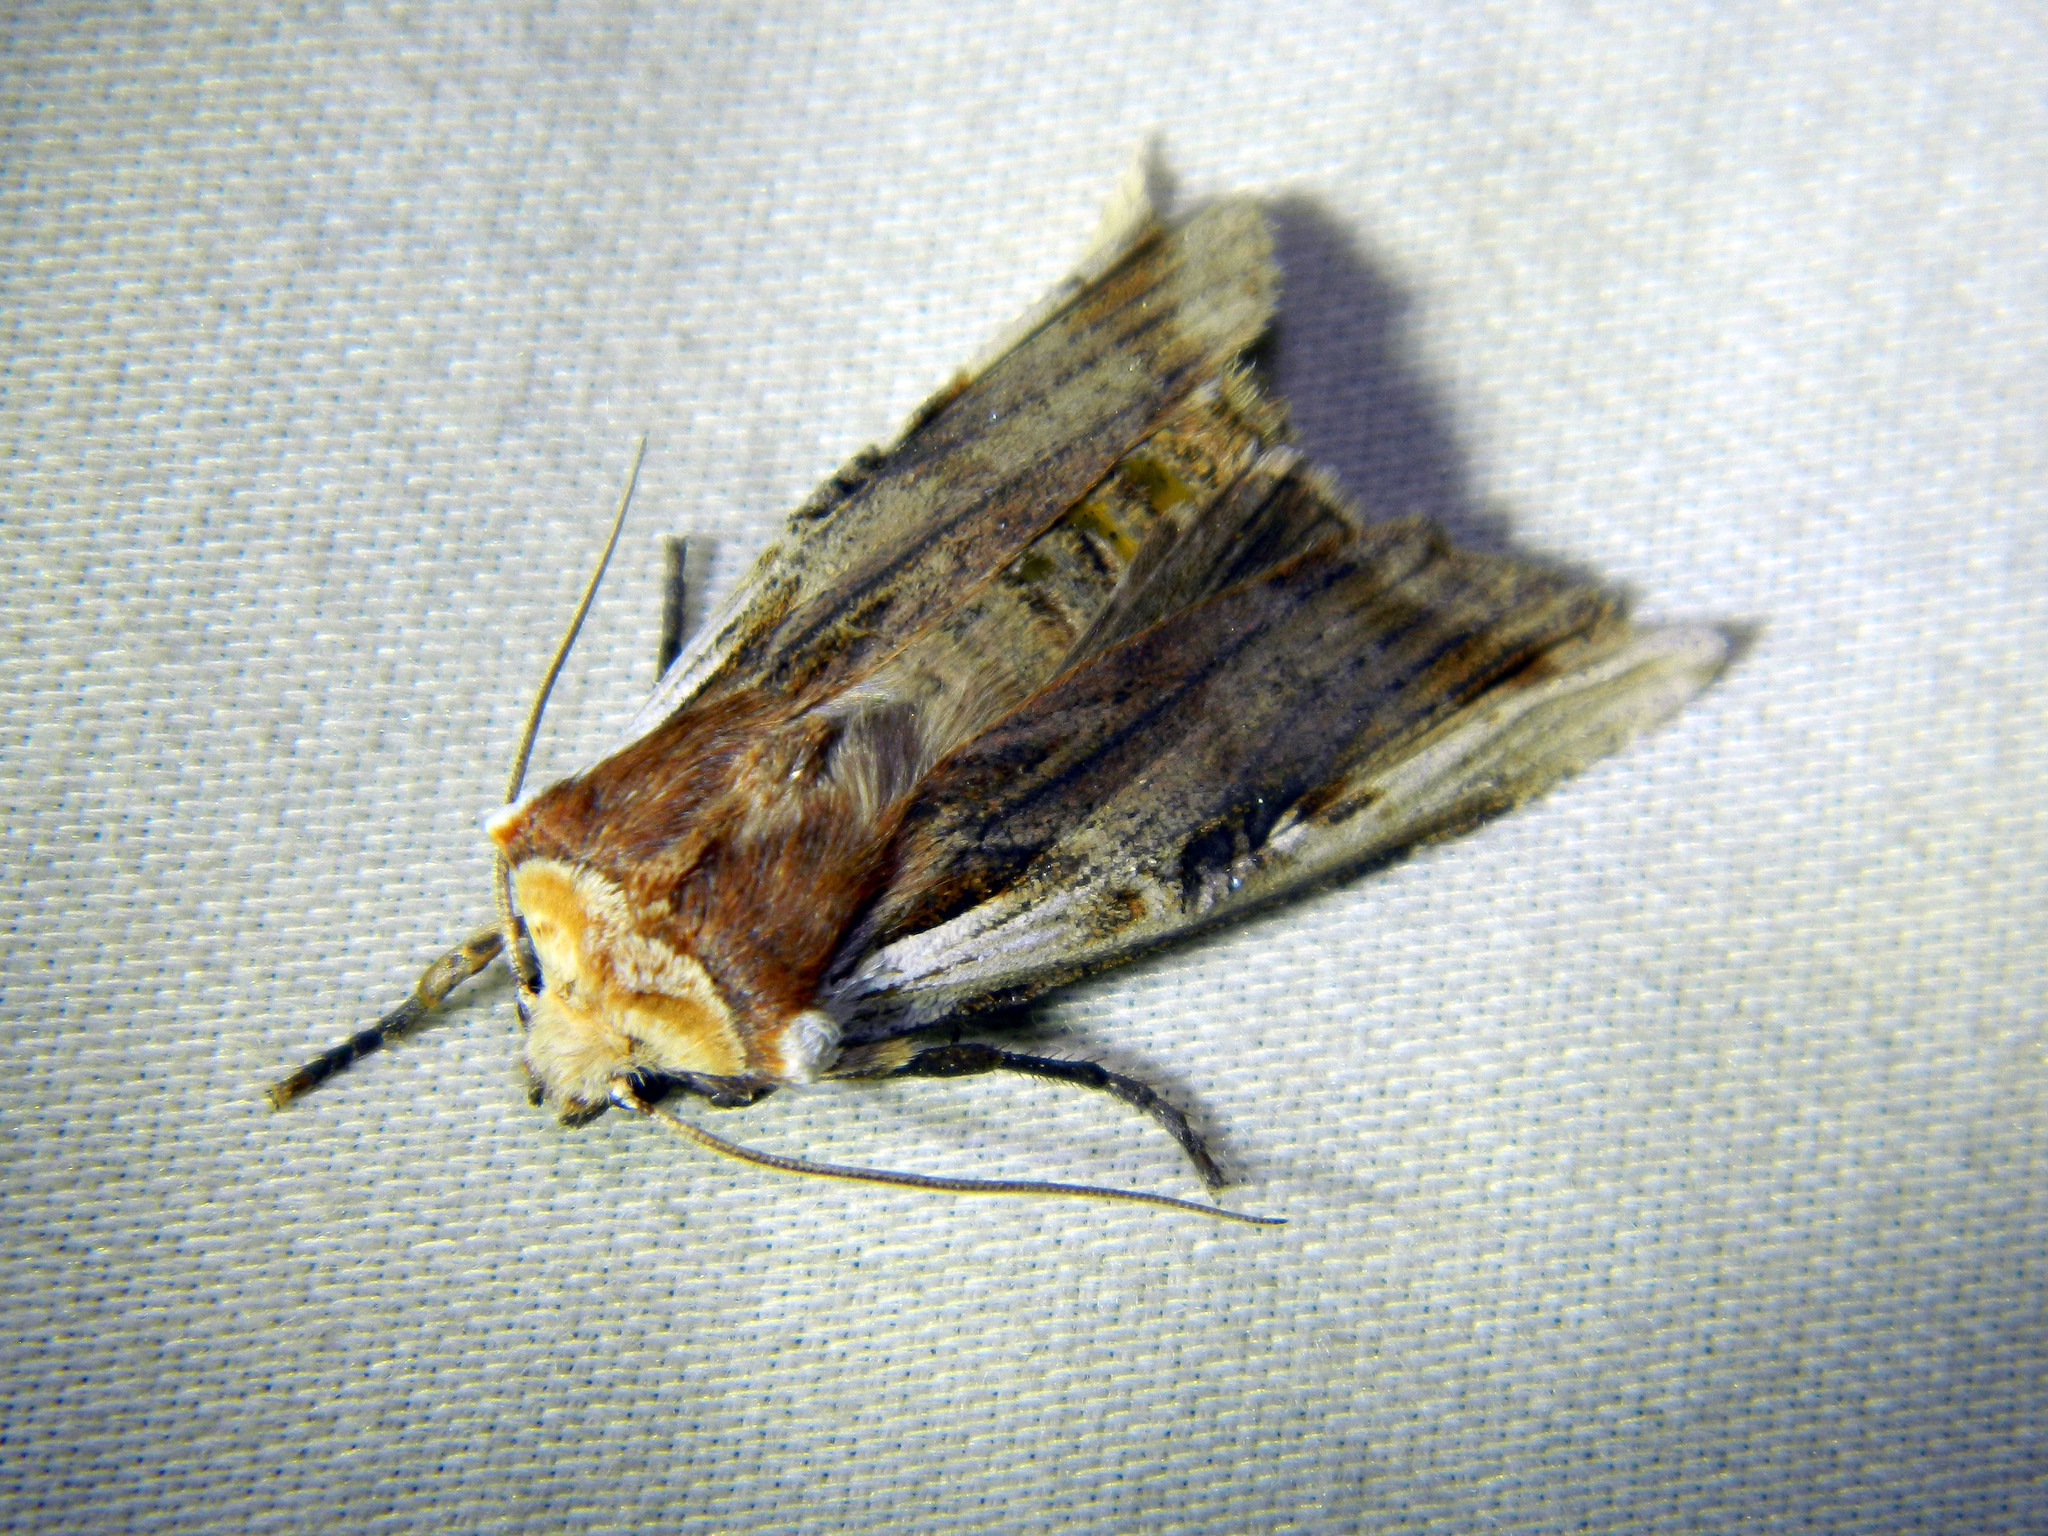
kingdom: Animalia
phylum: Arthropoda
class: Insecta
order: Lepidoptera
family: Noctuidae
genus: Xylena
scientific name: Xylena curvimacula
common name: Dot-and-dash swordgrass moth
